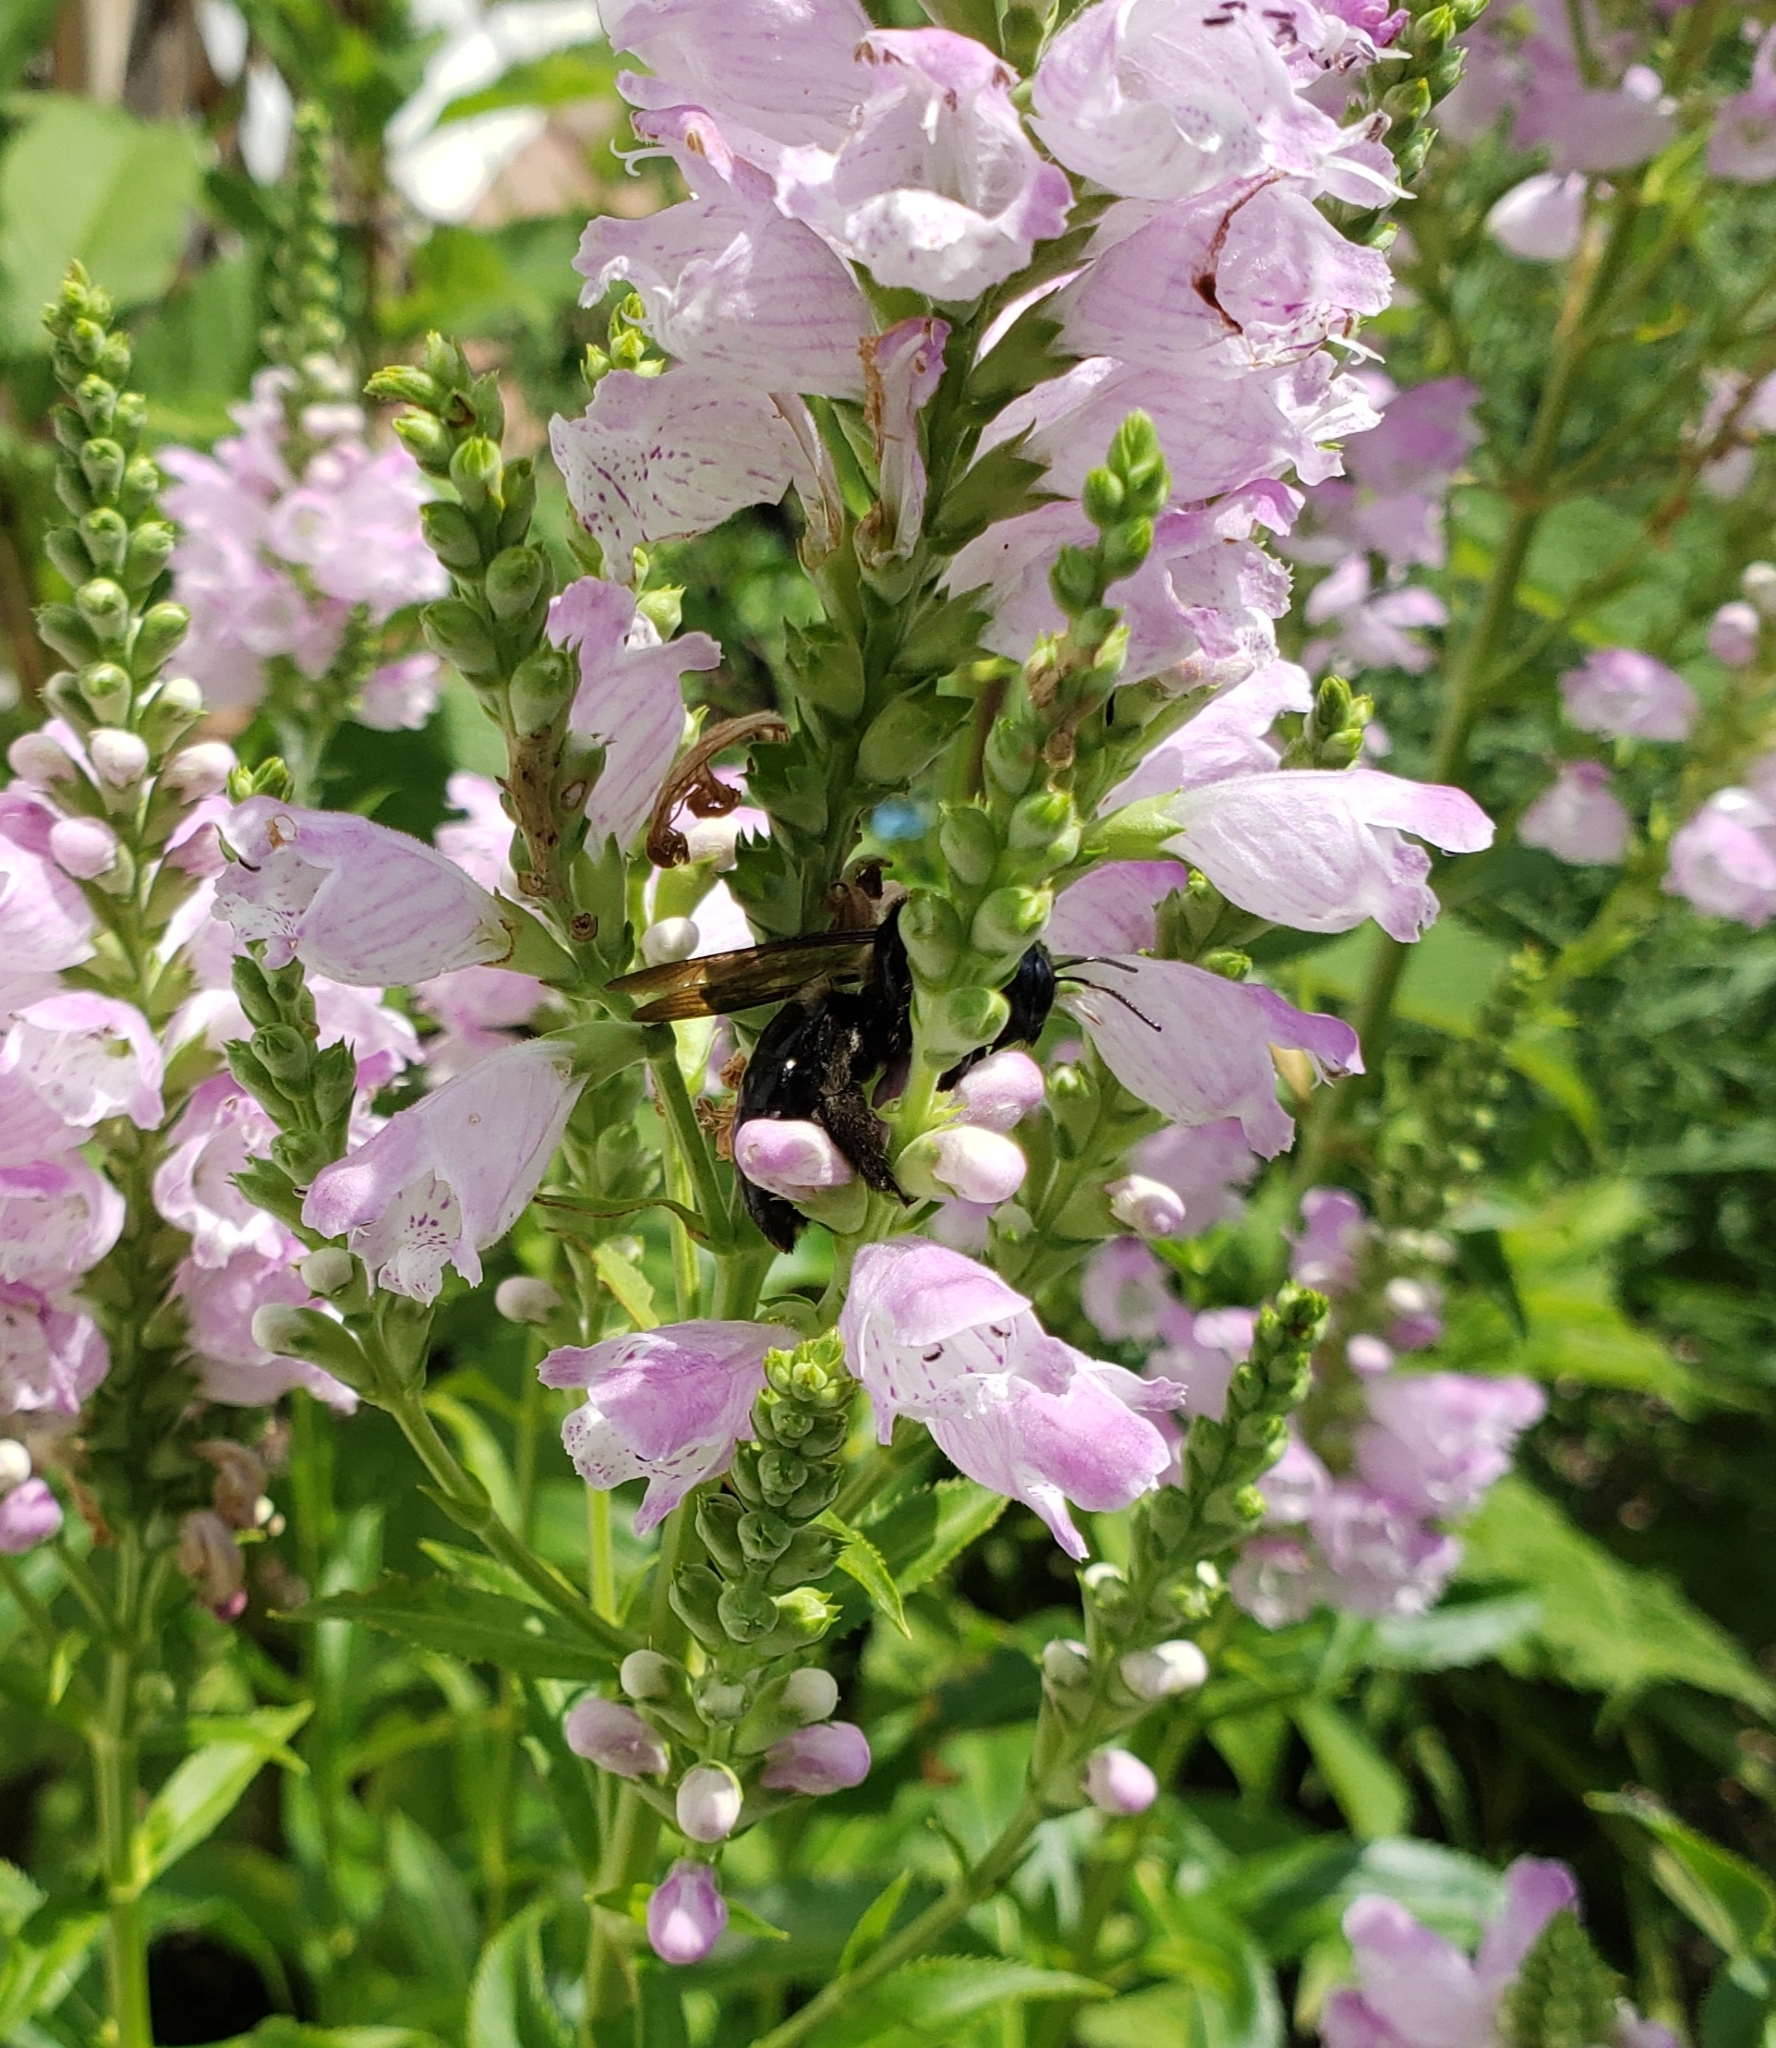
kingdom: Animalia
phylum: Arthropoda
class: Insecta
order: Hymenoptera
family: Apidae
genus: Xylocopa
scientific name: Xylocopa virginica
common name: Carpenter bee
